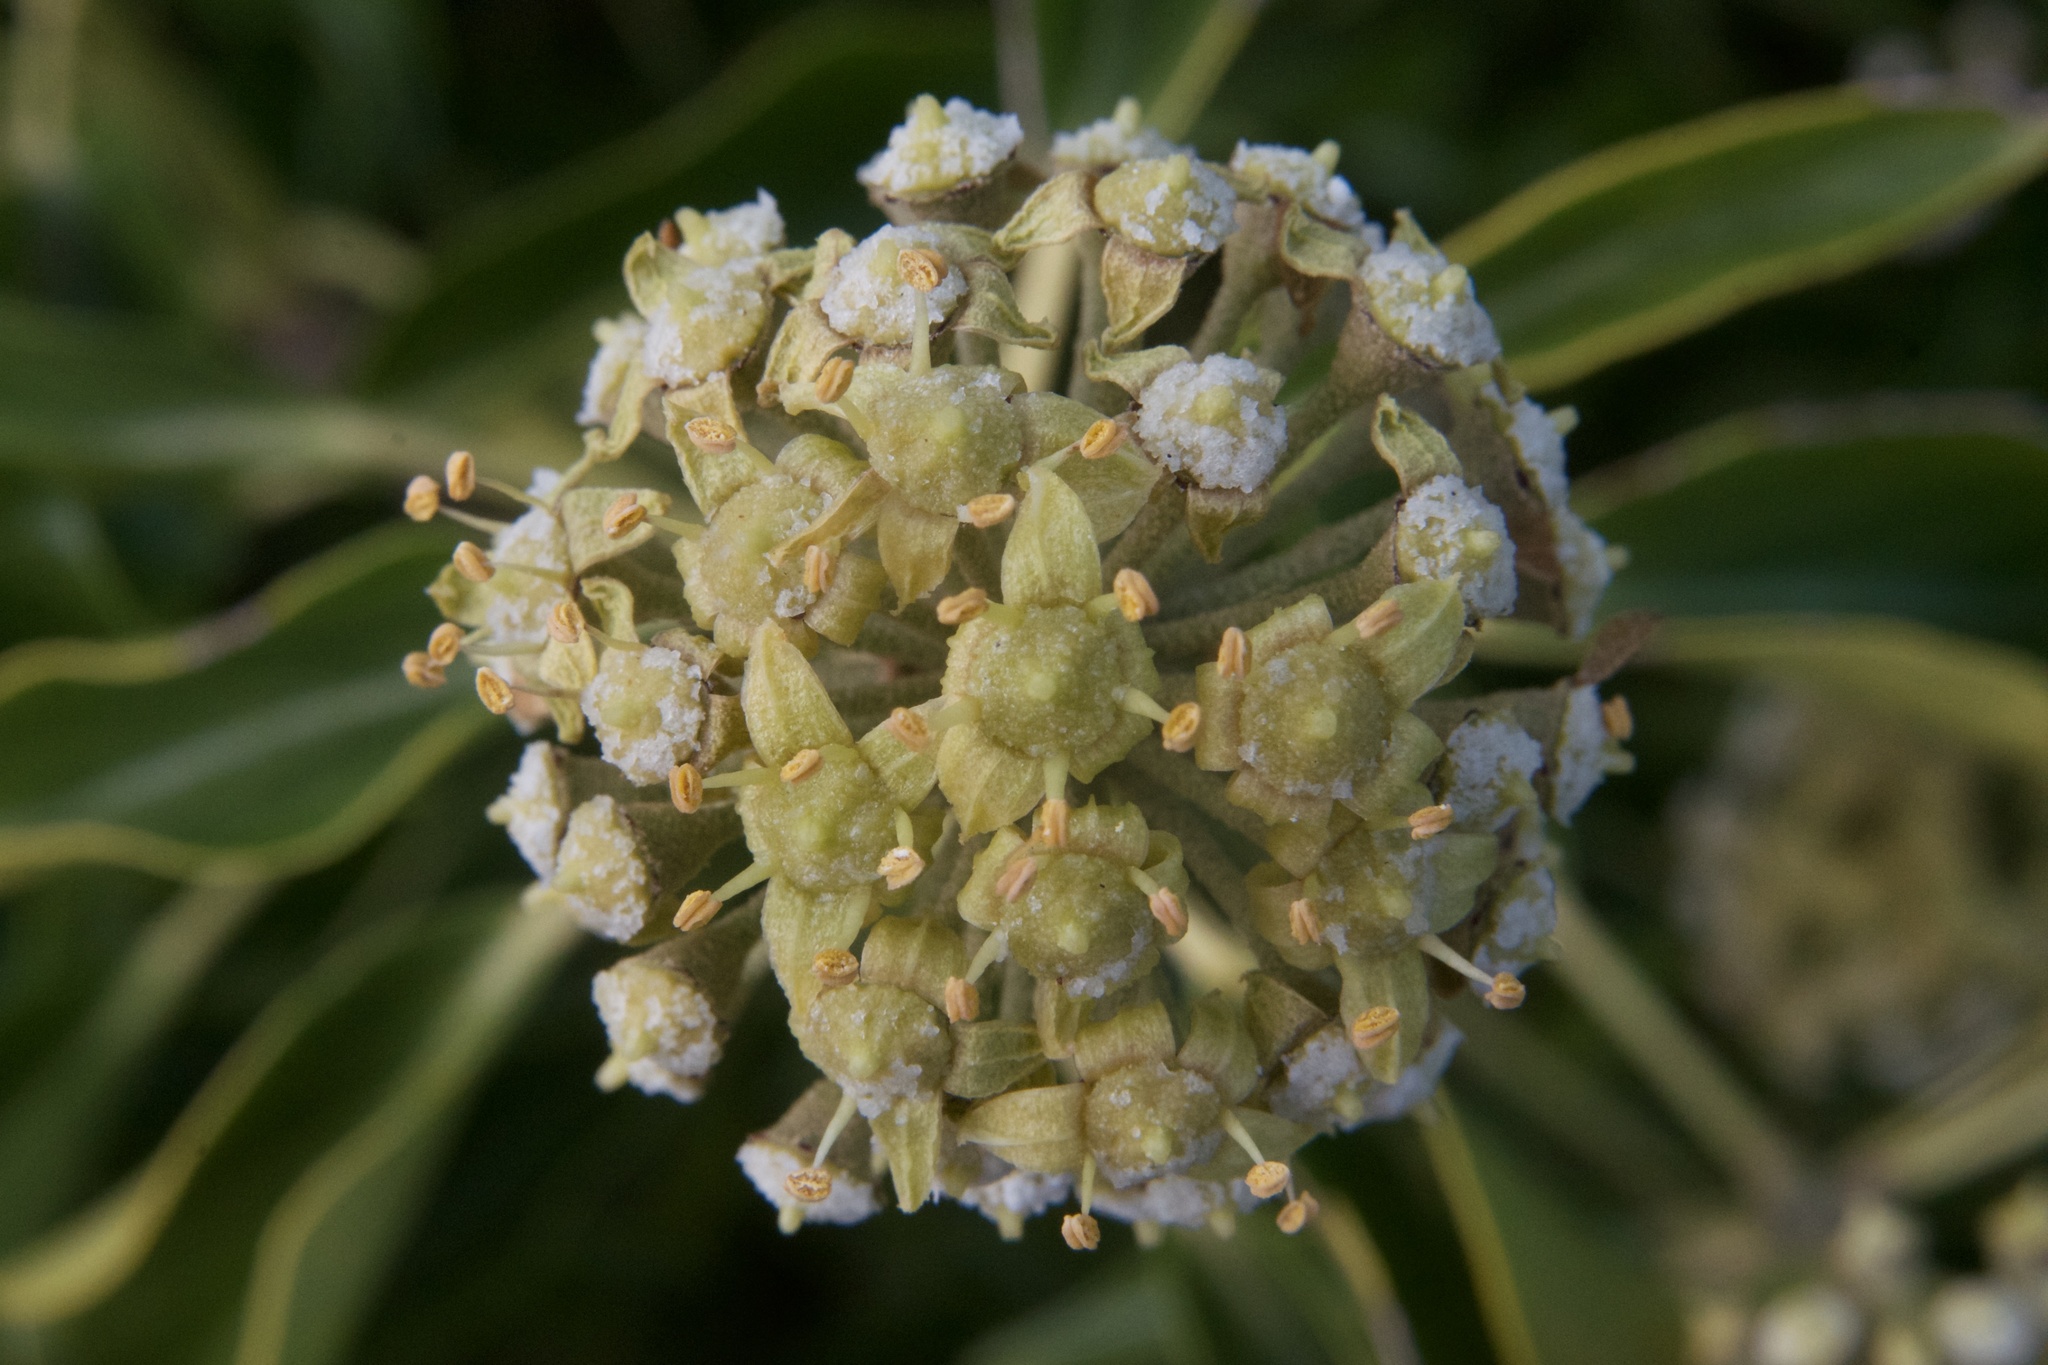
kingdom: Plantae
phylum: Tracheophyta
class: Magnoliopsida
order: Apiales
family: Araliaceae
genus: Hedera
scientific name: Hedera helix
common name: Ivy
